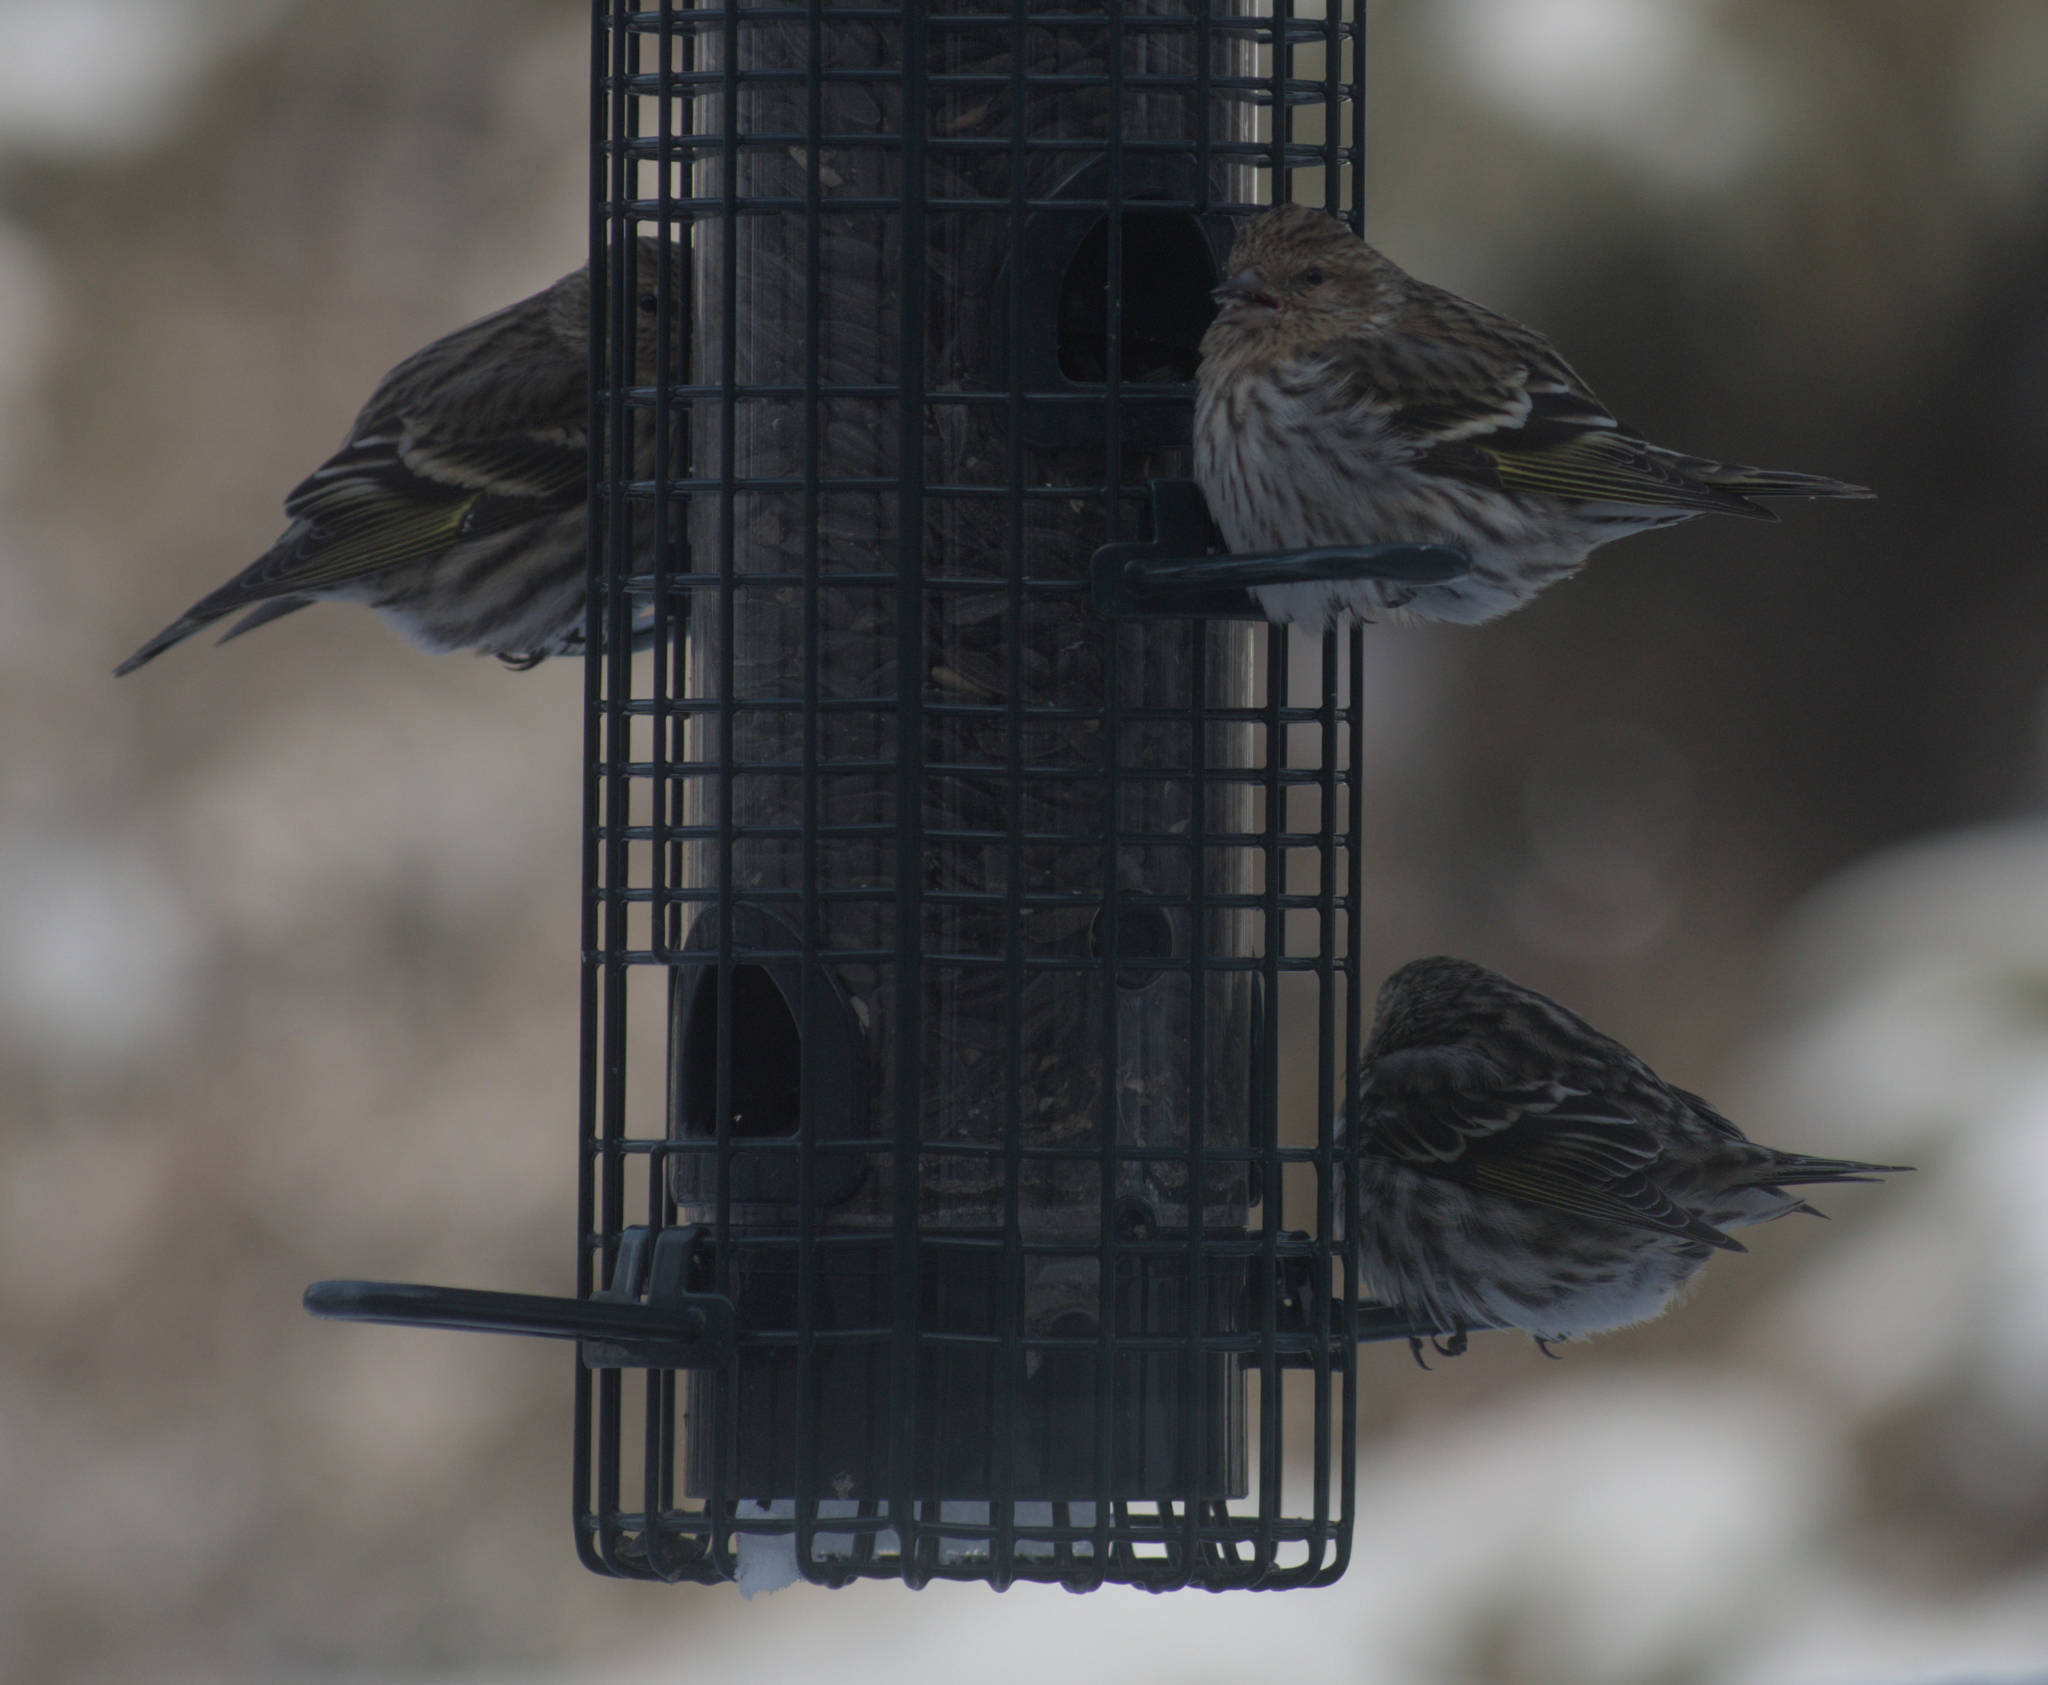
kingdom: Animalia
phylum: Chordata
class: Aves
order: Passeriformes
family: Fringillidae
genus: Spinus
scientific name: Spinus pinus
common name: Pine siskin
